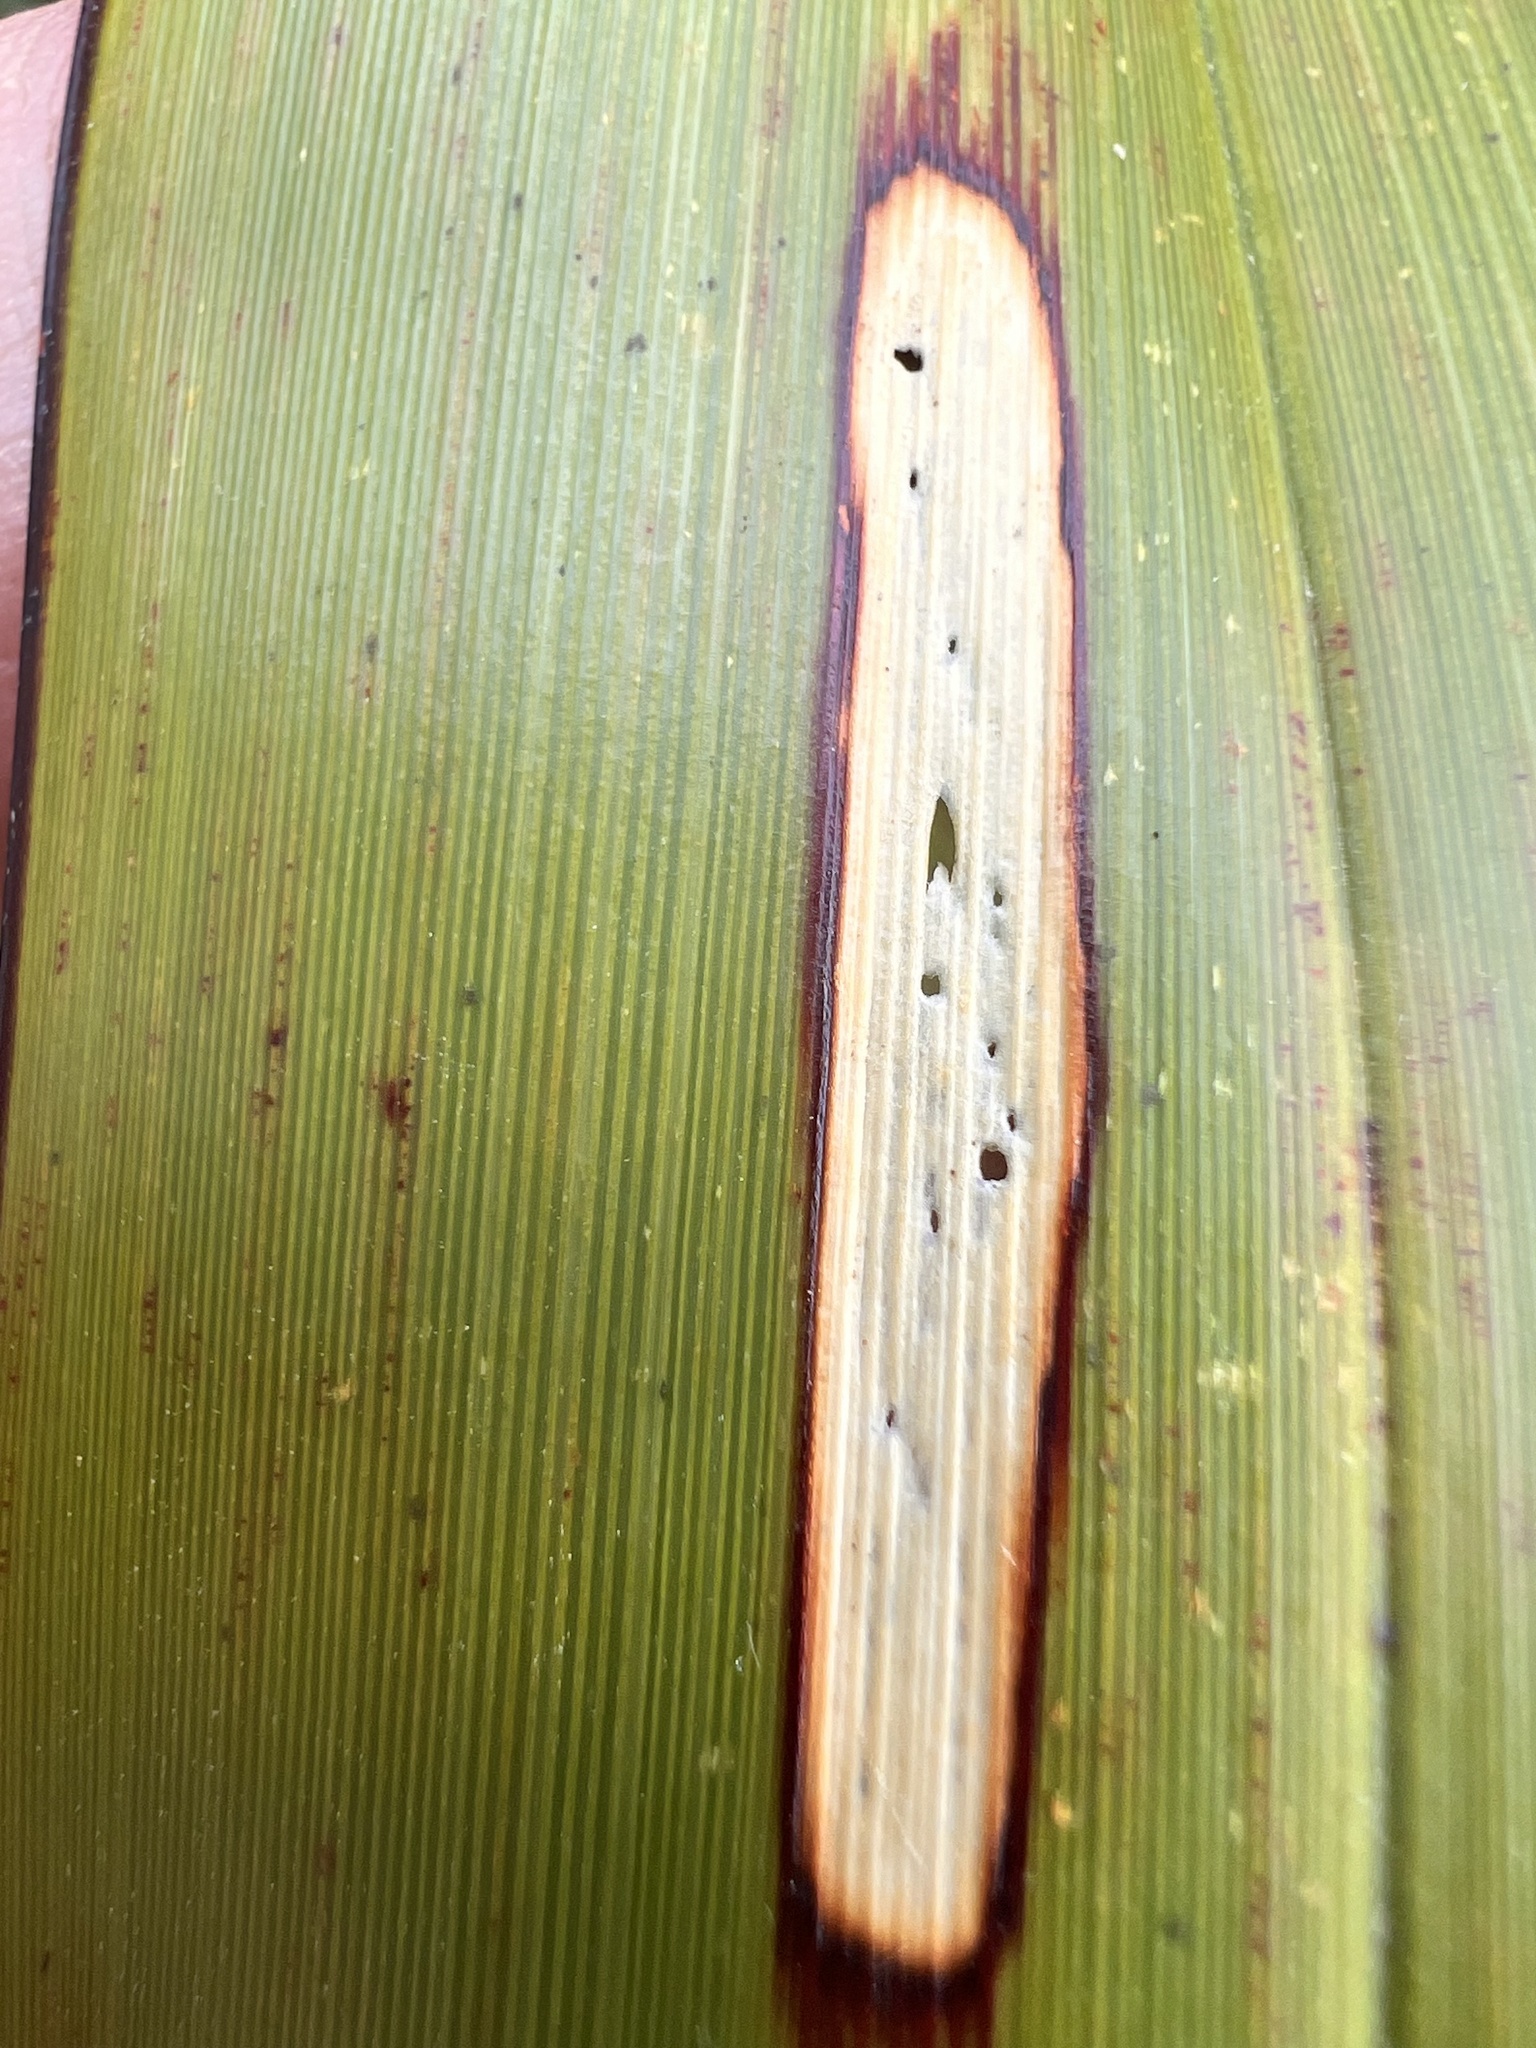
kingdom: Animalia
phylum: Arthropoda
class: Insecta
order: Lepidoptera
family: Geometridae
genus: Orthoclydon
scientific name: Orthoclydon praefectata
